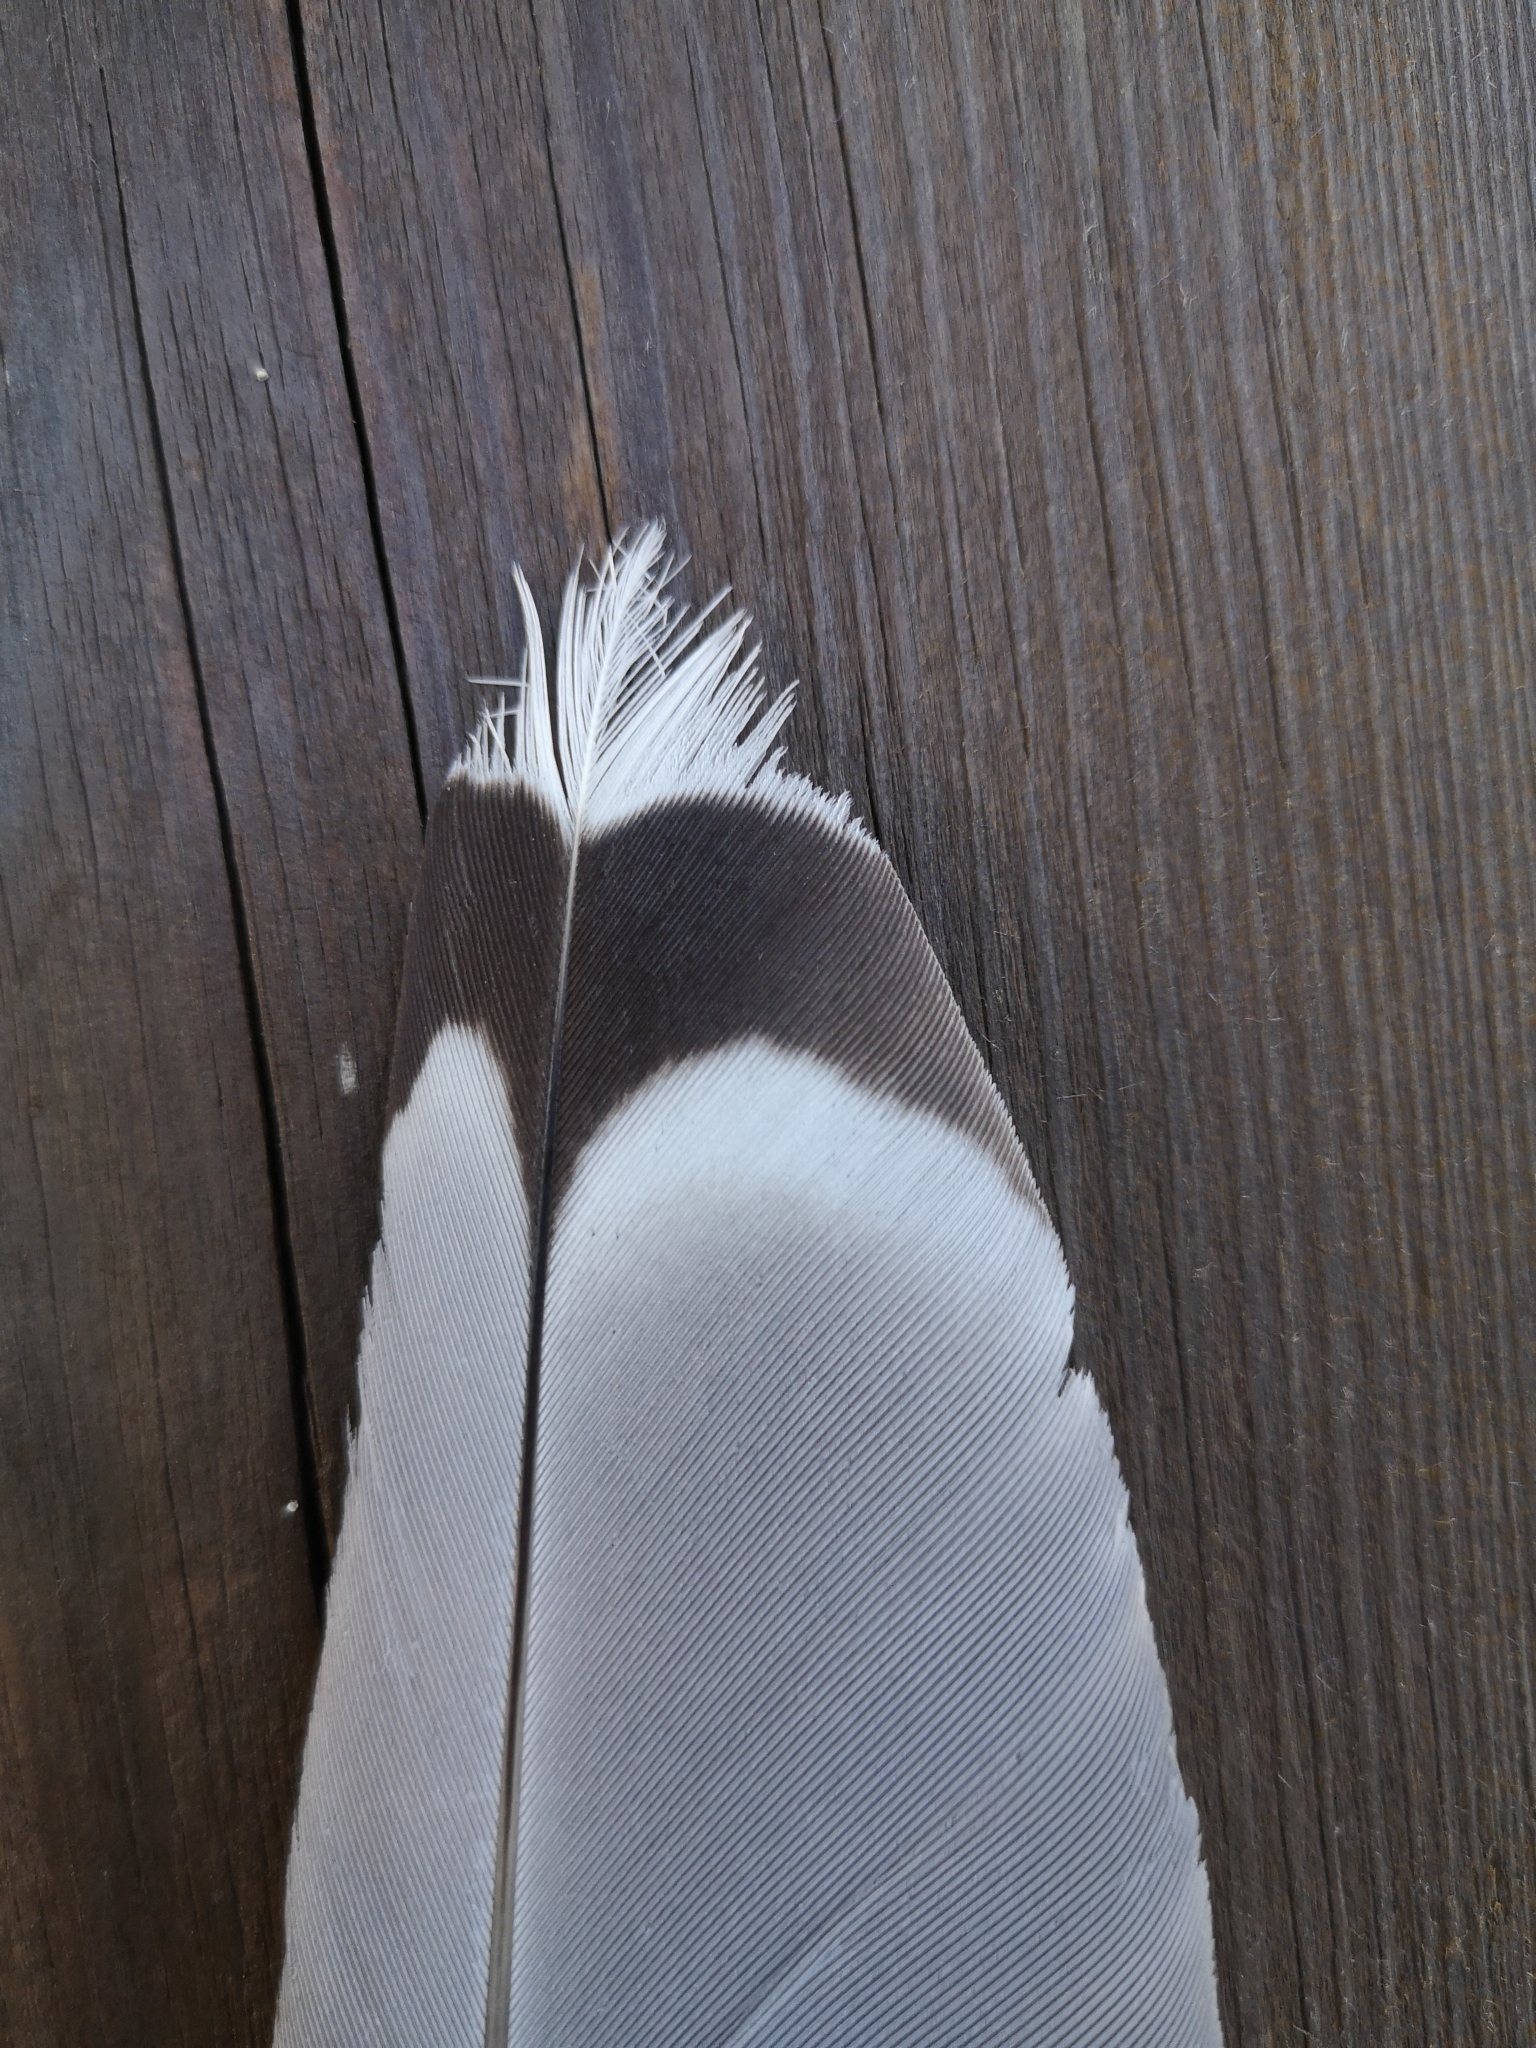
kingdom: Animalia
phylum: Chordata
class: Aves
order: Charadriiformes
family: Laridae
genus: Larus
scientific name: Larus michahellis
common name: Yellow-legged gull
